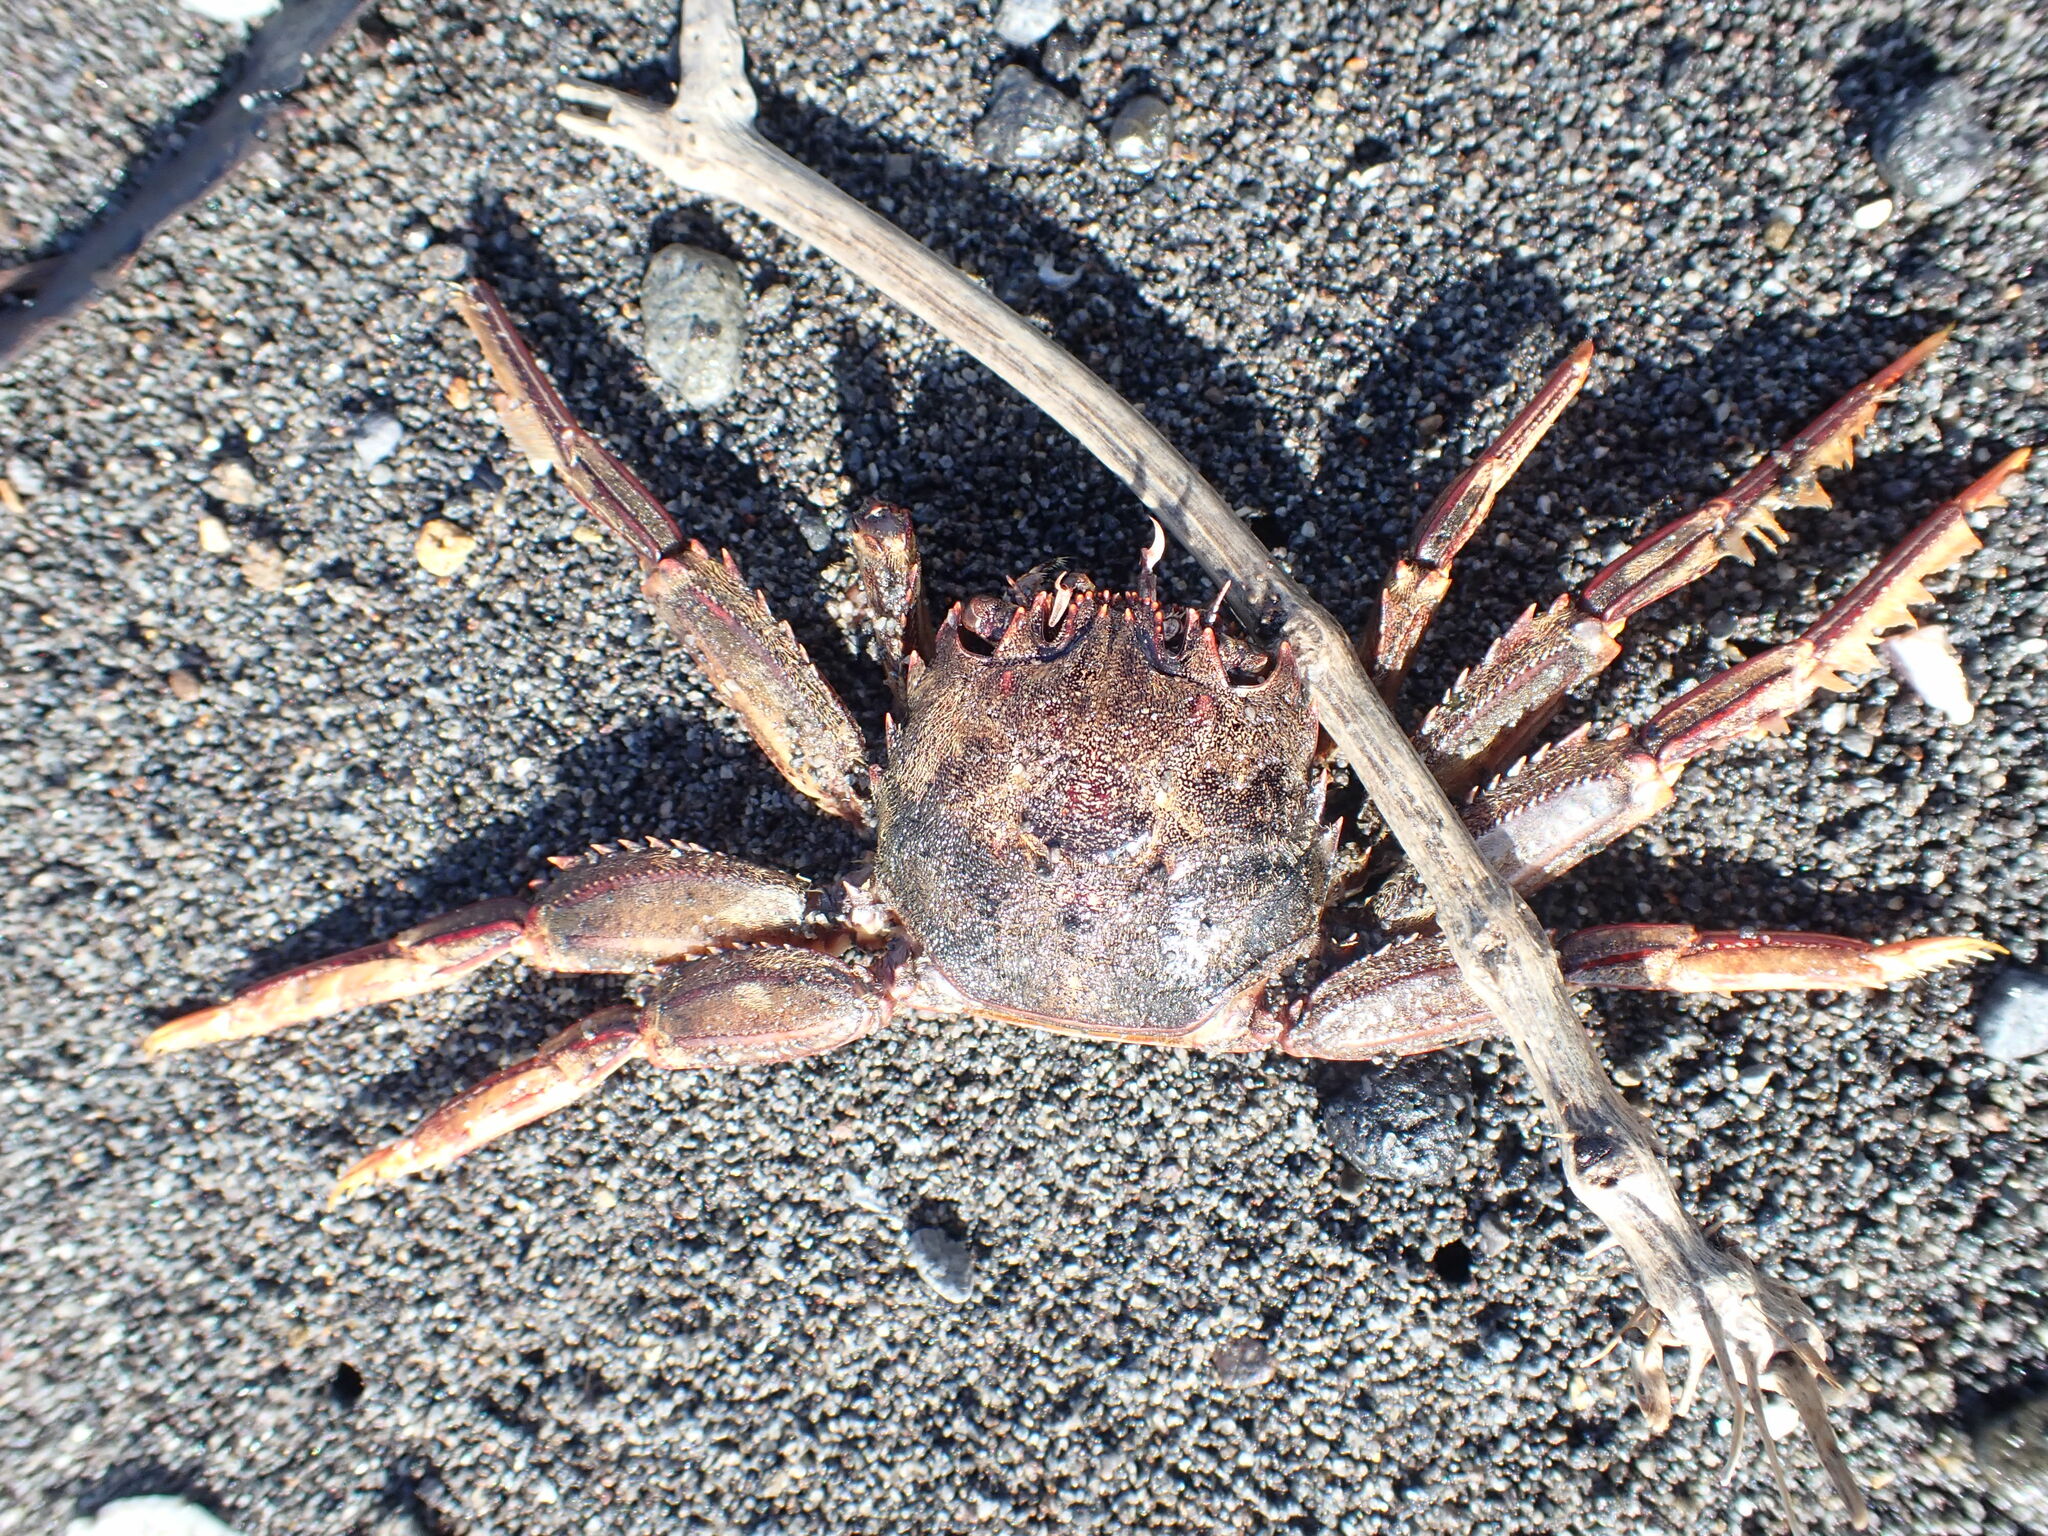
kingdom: Animalia
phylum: Arthropoda
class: Malacostraca
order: Decapoda
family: Plagusiidae
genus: Guinusia
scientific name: Guinusia chabrus
